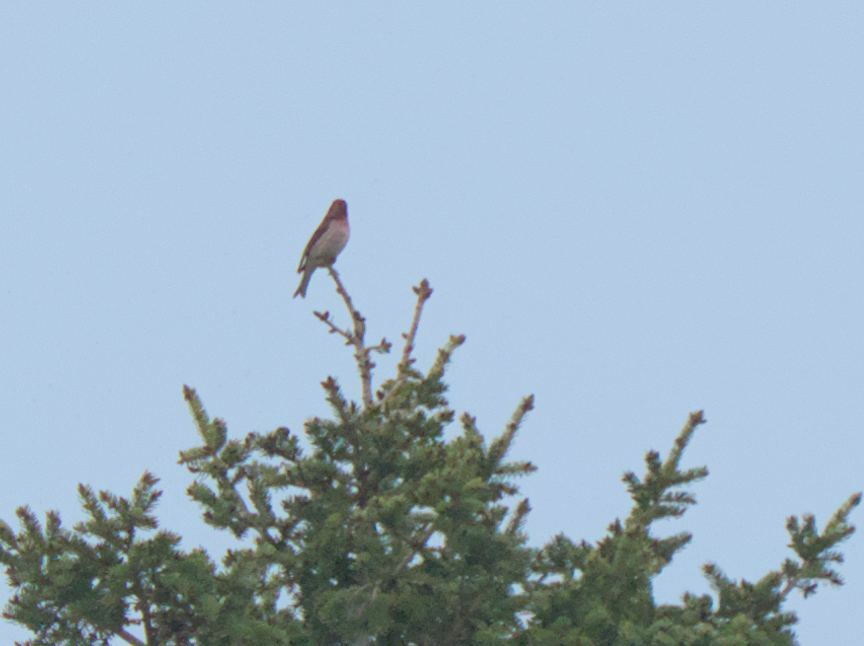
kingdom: Animalia
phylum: Chordata
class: Aves
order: Passeriformes
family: Fringillidae
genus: Haemorhous
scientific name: Haemorhous purpureus
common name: Purple finch
